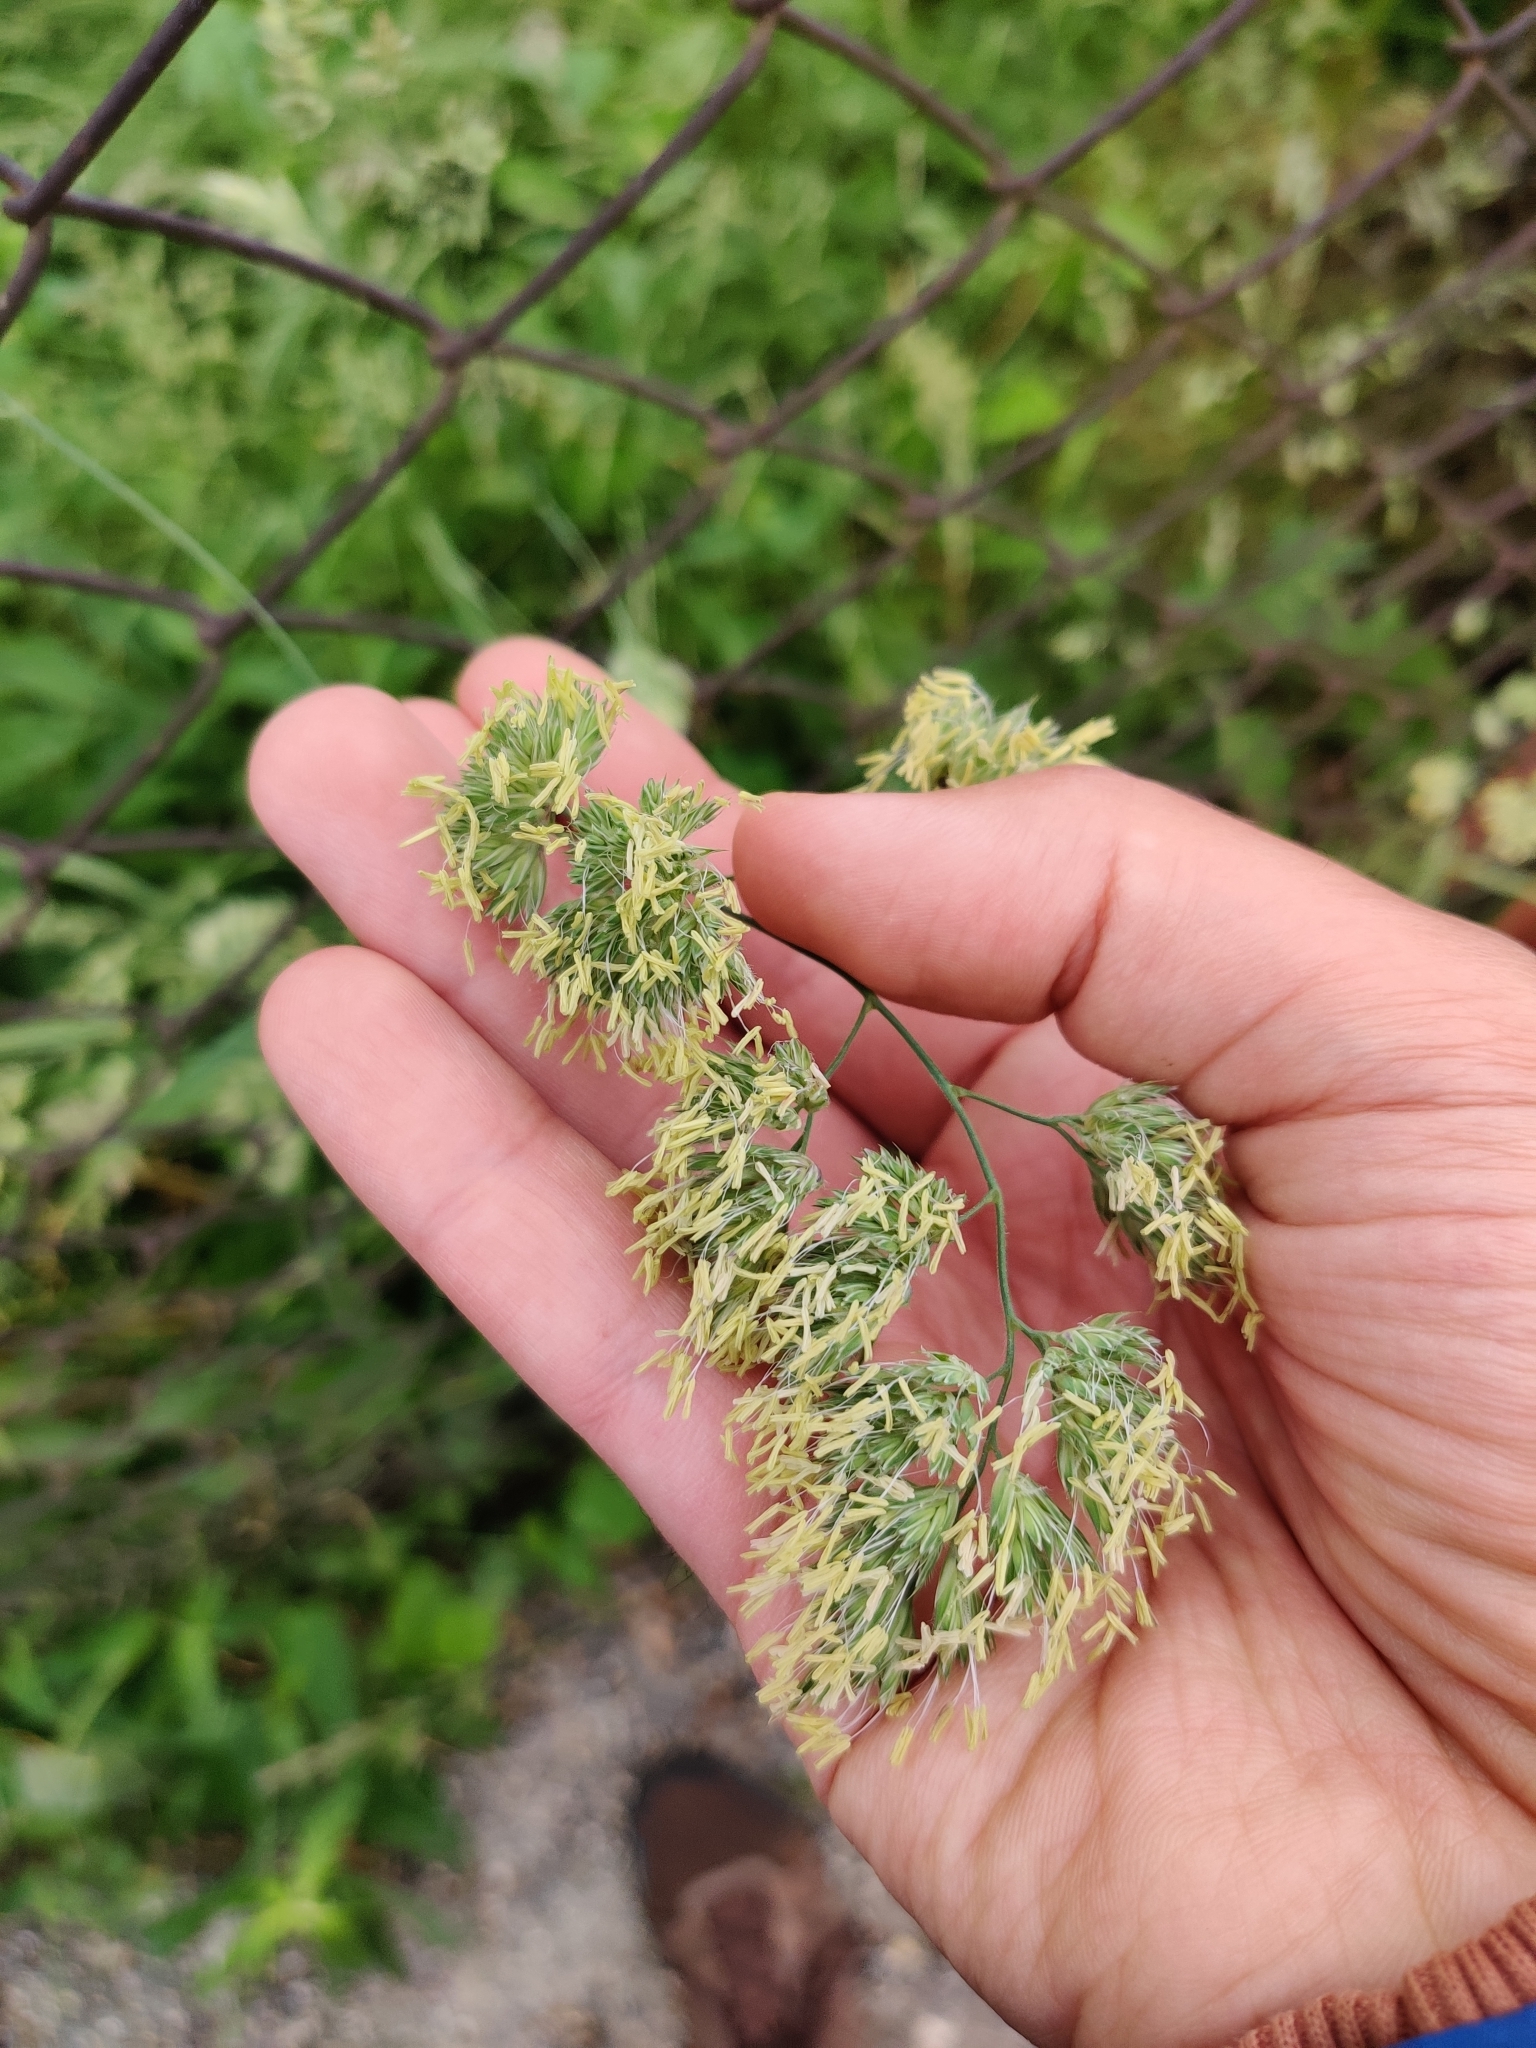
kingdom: Plantae
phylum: Tracheophyta
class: Liliopsida
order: Poales
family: Poaceae
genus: Dactylis
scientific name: Dactylis glomerata
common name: Orchardgrass
